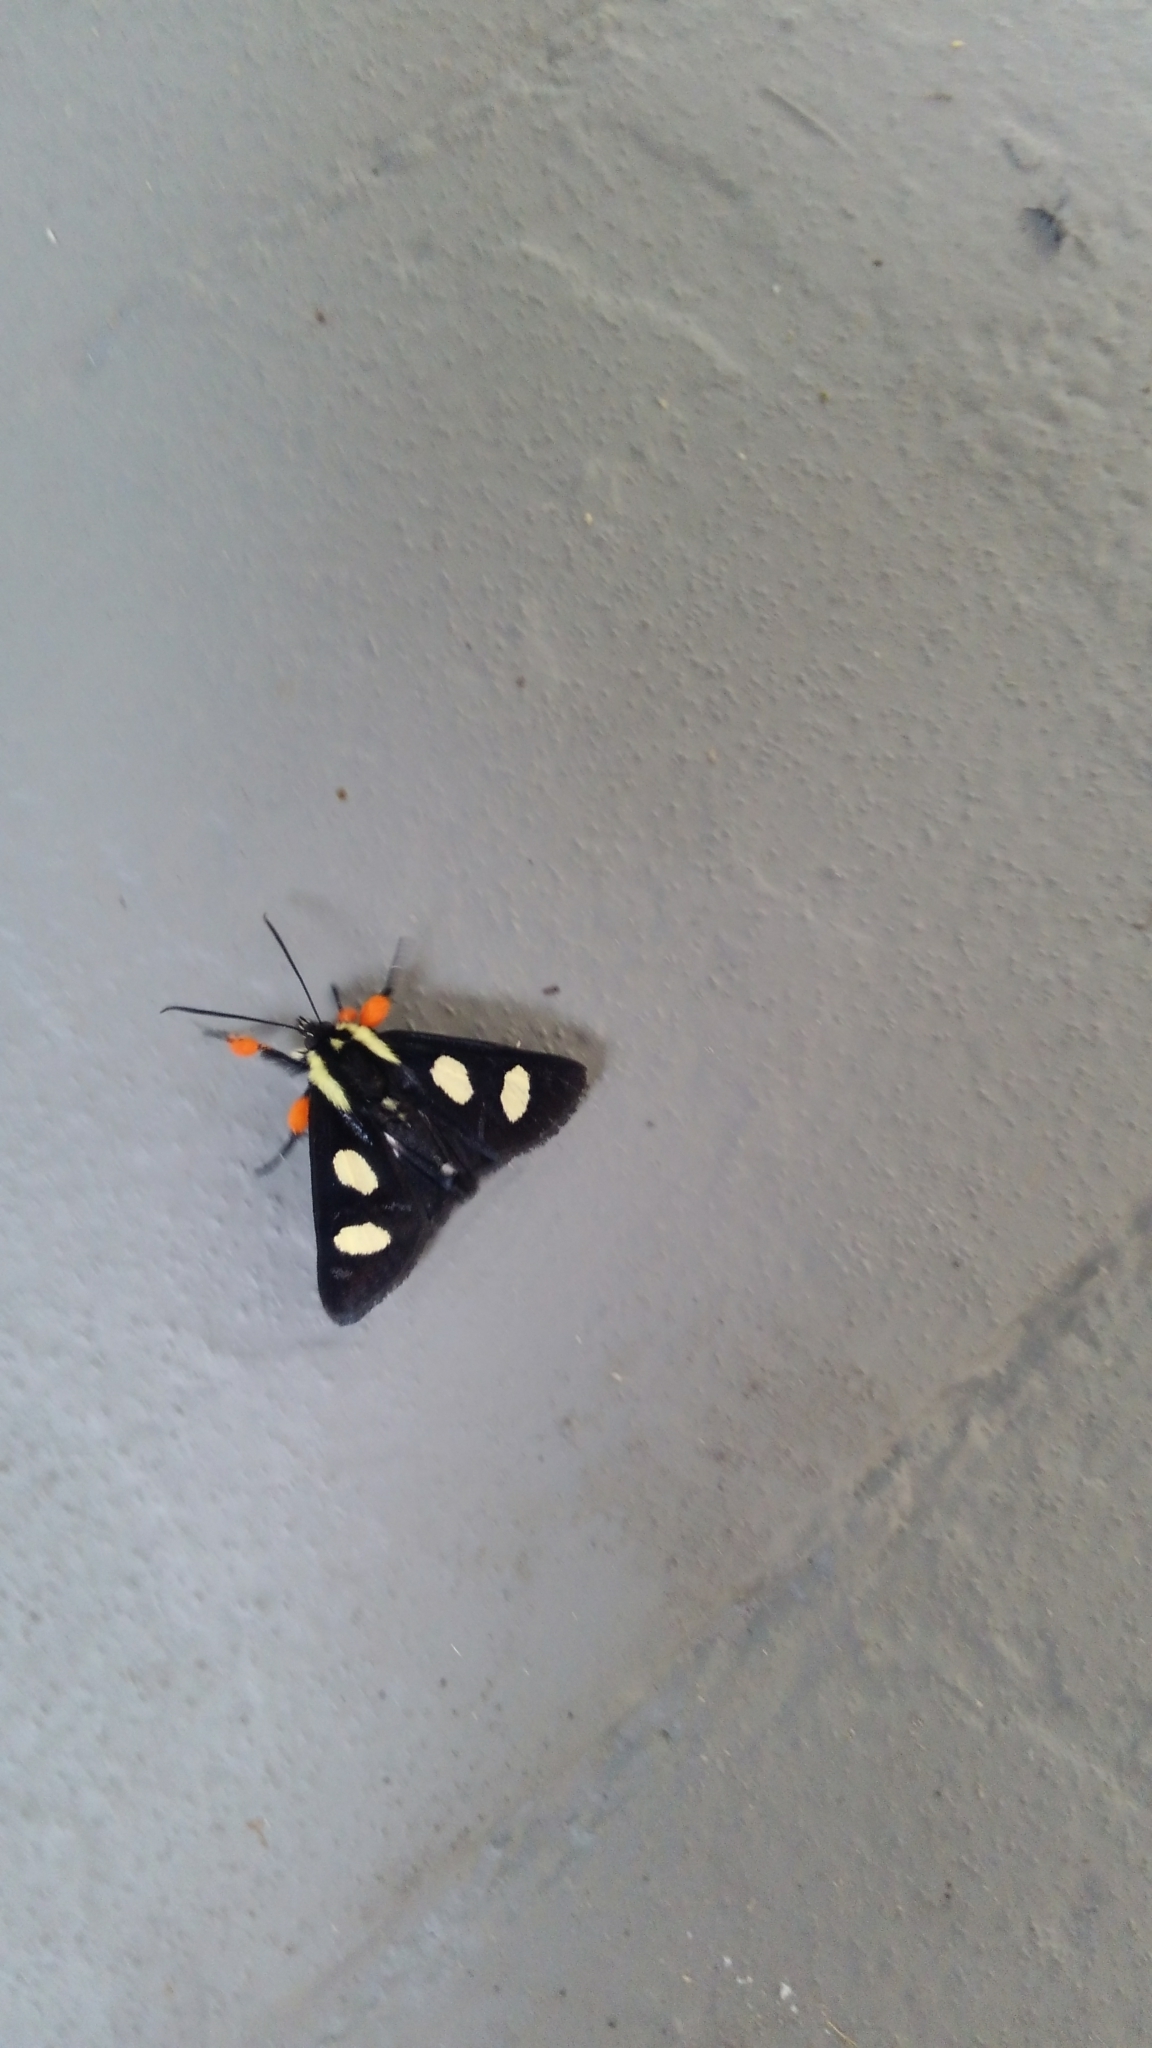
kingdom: Animalia
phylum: Arthropoda
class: Insecta
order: Lepidoptera
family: Noctuidae
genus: Alypia
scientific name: Alypia octomaculata
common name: Eight-spotted forester
